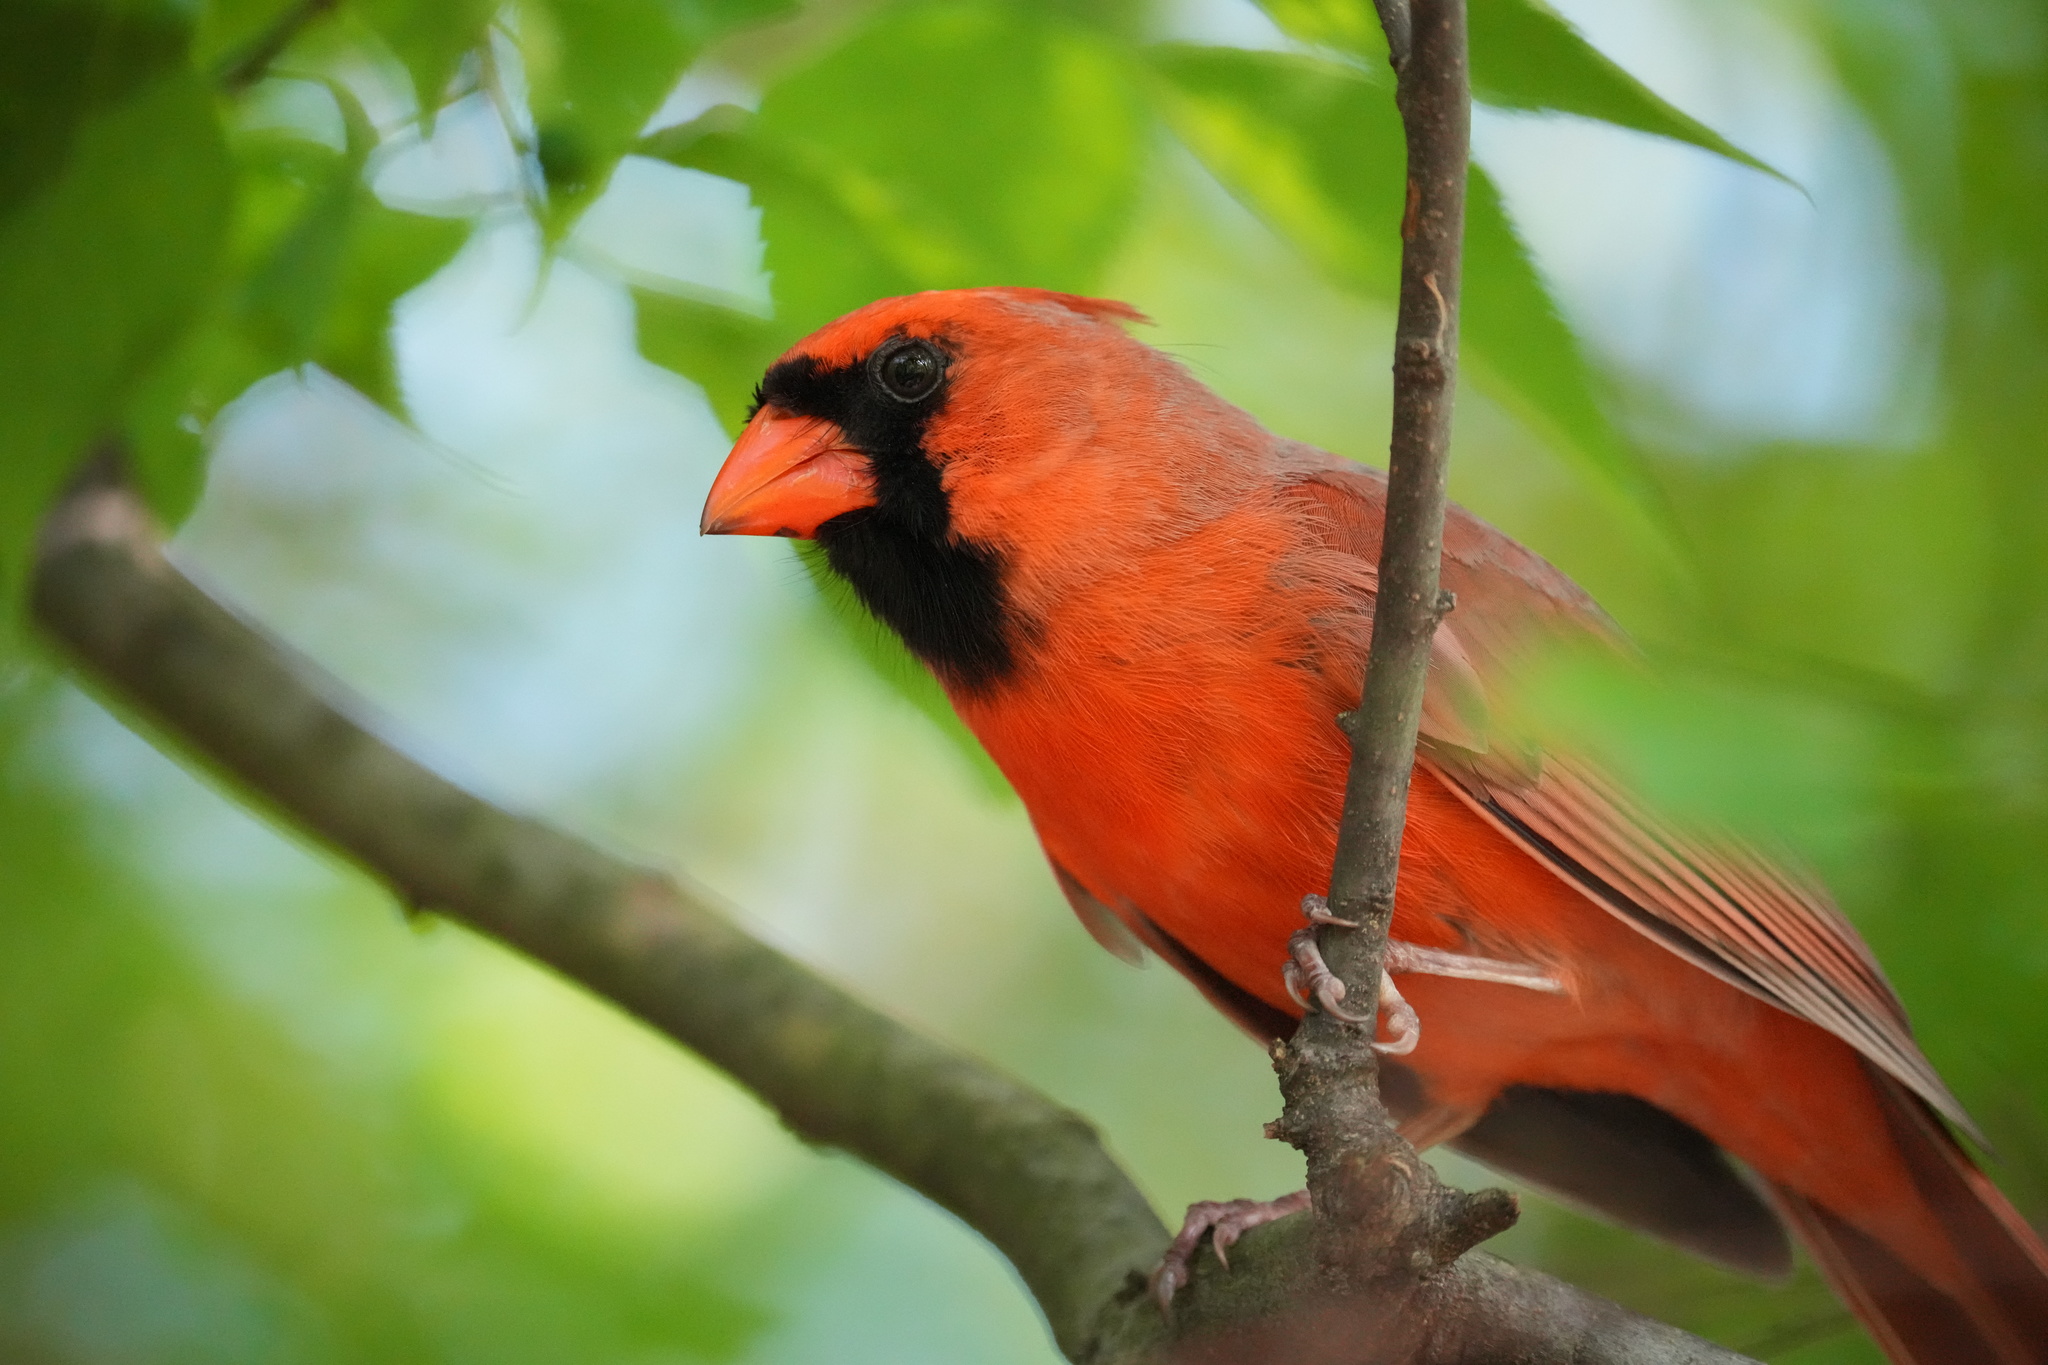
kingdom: Animalia
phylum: Chordata
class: Aves
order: Passeriformes
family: Cardinalidae
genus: Cardinalis
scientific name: Cardinalis cardinalis
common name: Northern cardinal
